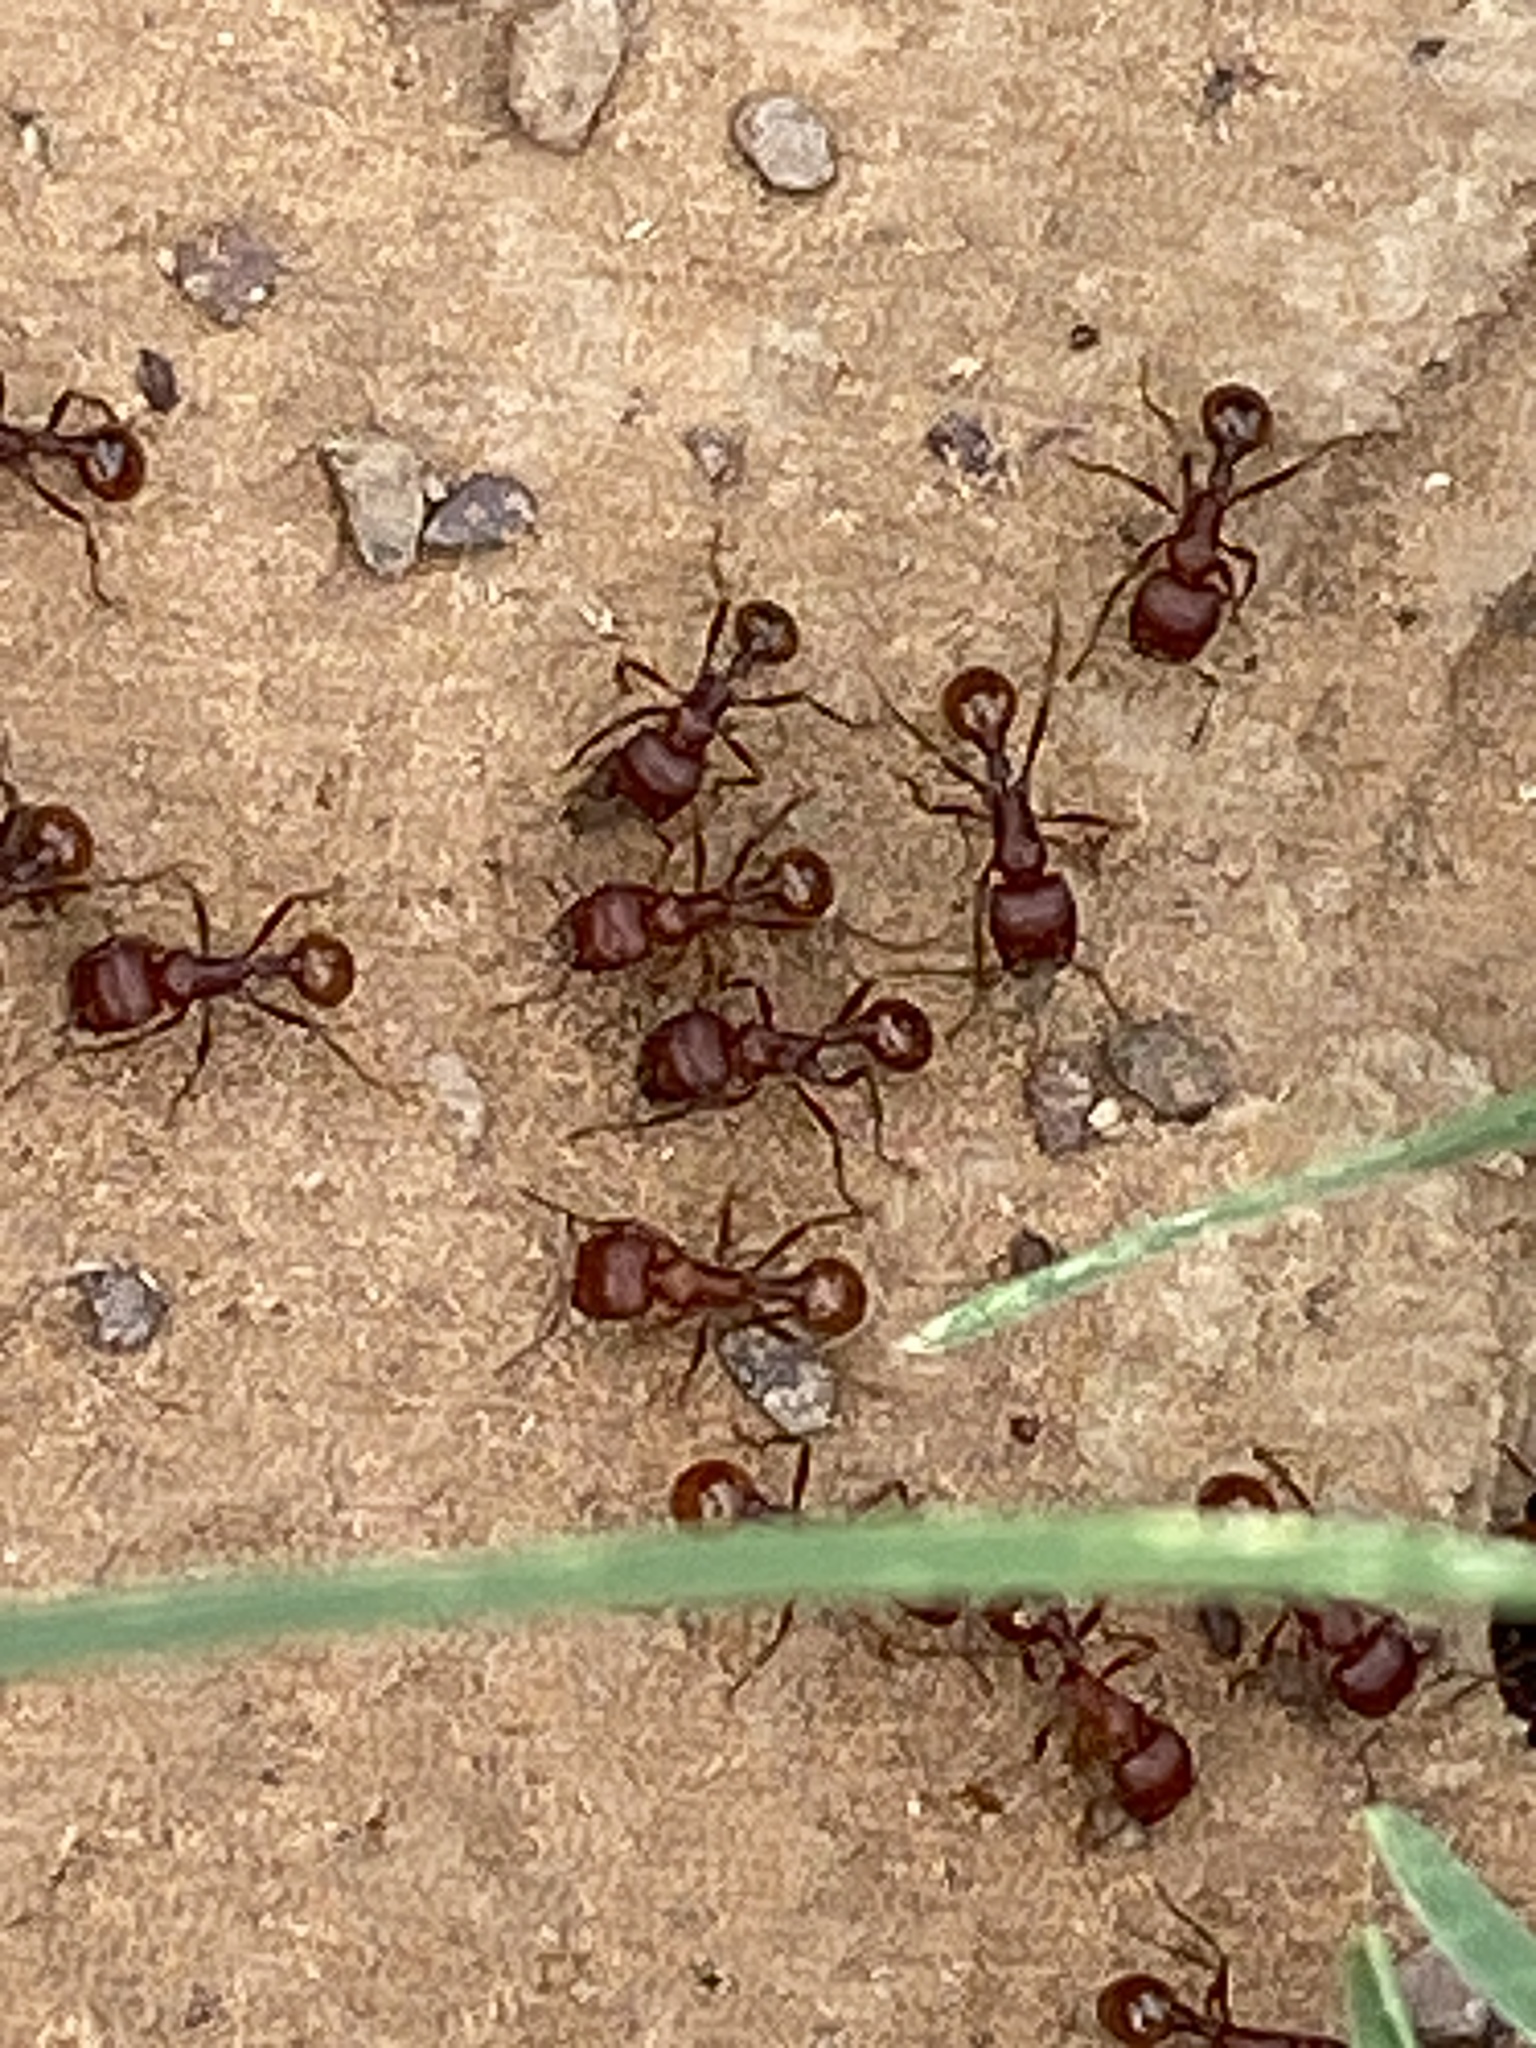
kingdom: Animalia
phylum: Arthropoda
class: Insecta
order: Hymenoptera
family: Formicidae
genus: Pogonomyrmex
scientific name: Pogonomyrmex barbatus
